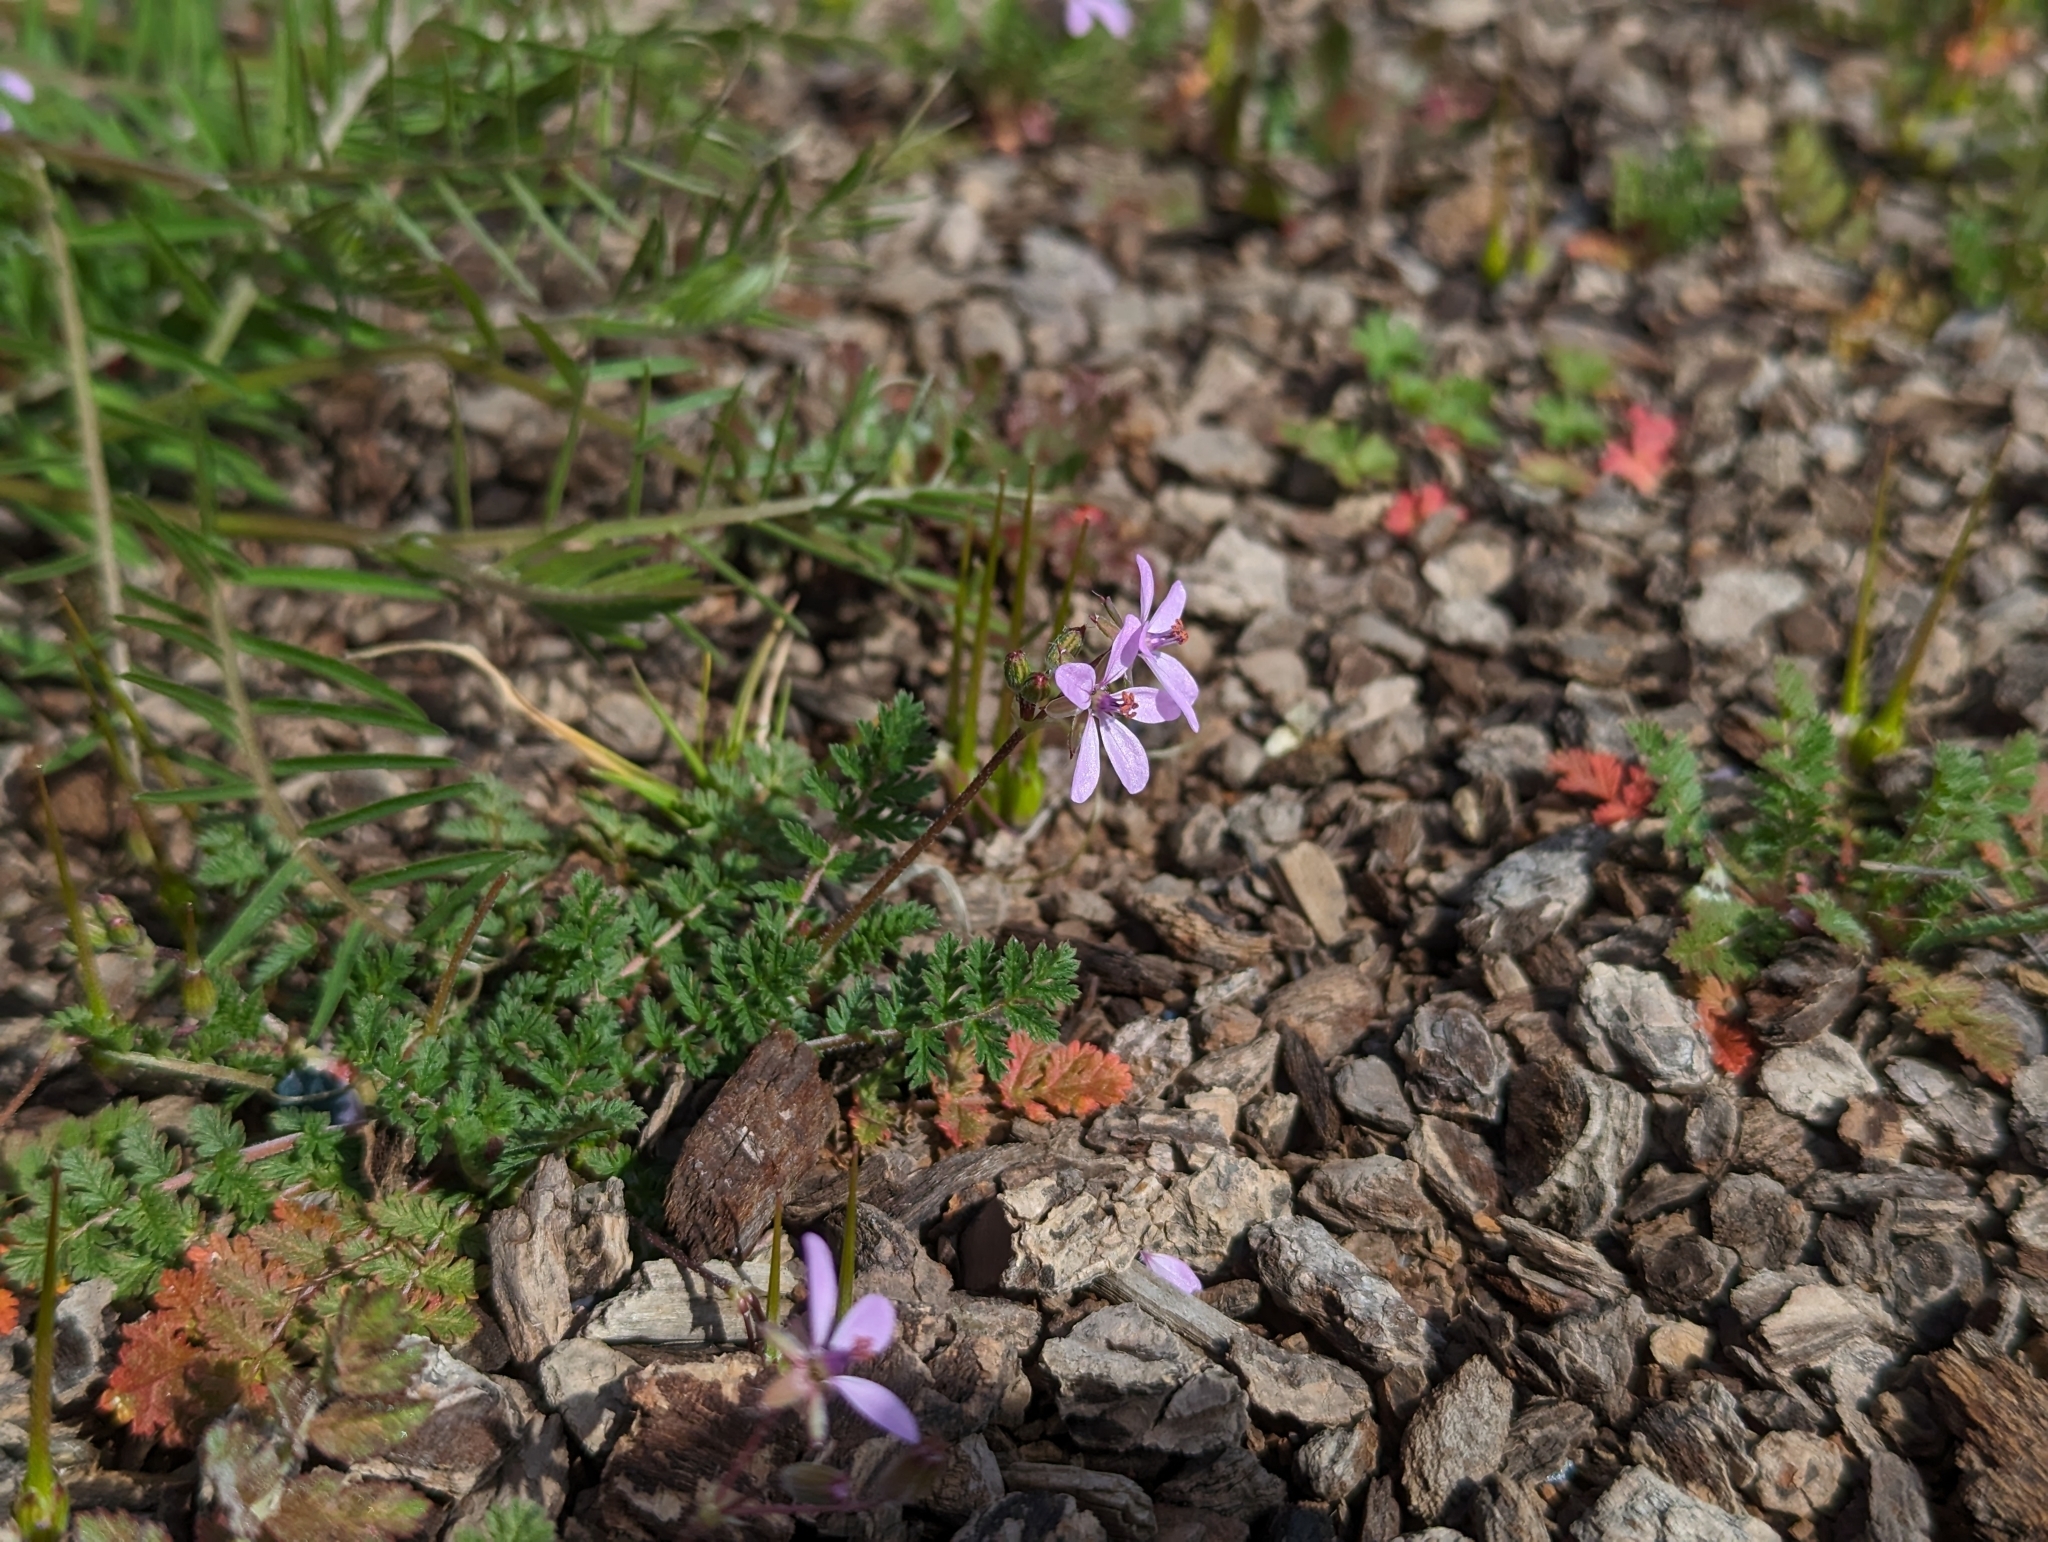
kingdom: Plantae
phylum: Tracheophyta
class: Magnoliopsida
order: Geraniales
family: Geraniaceae
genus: Erodium
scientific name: Erodium cicutarium
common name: Common stork's-bill
